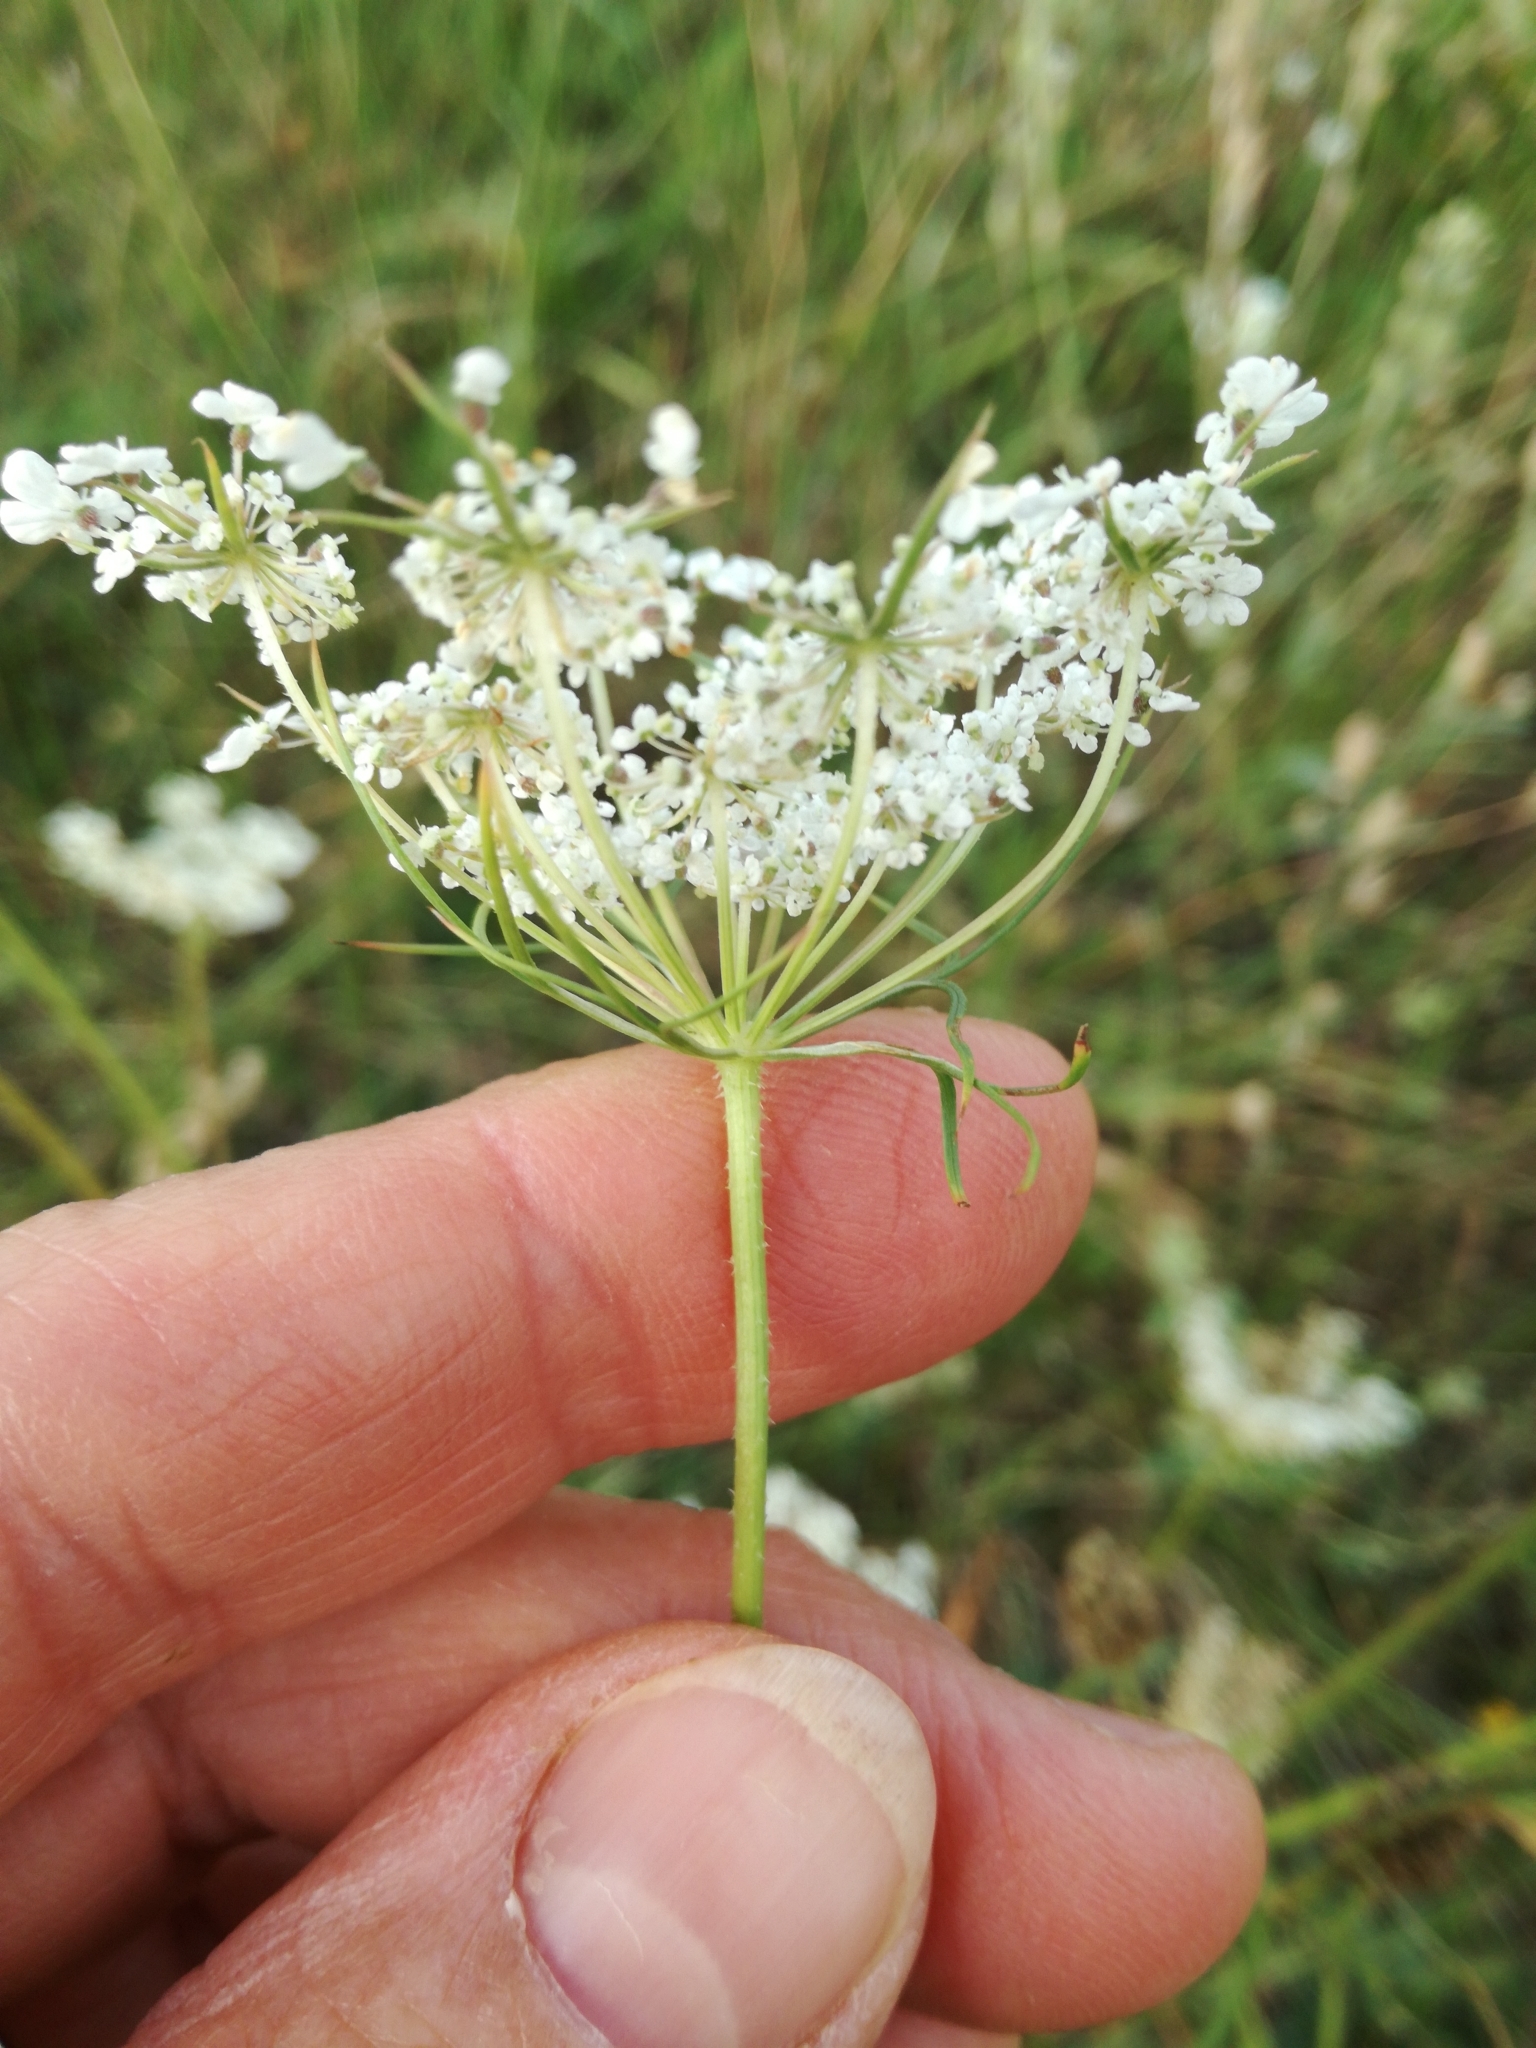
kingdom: Plantae
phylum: Tracheophyta
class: Magnoliopsida
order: Apiales
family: Apiaceae
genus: Daucus
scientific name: Daucus carota
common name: Wild carrot
